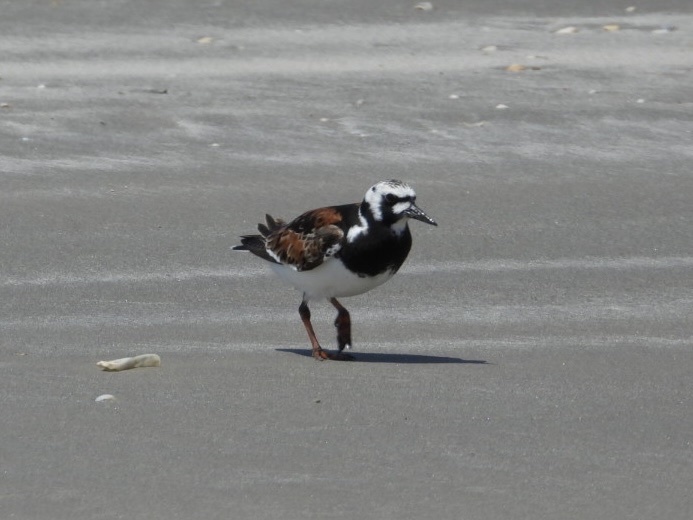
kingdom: Animalia
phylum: Chordata
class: Aves
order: Charadriiformes
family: Scolopacidae
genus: Arenaria
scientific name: Arenaria interpres
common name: Ruddy turnstone
